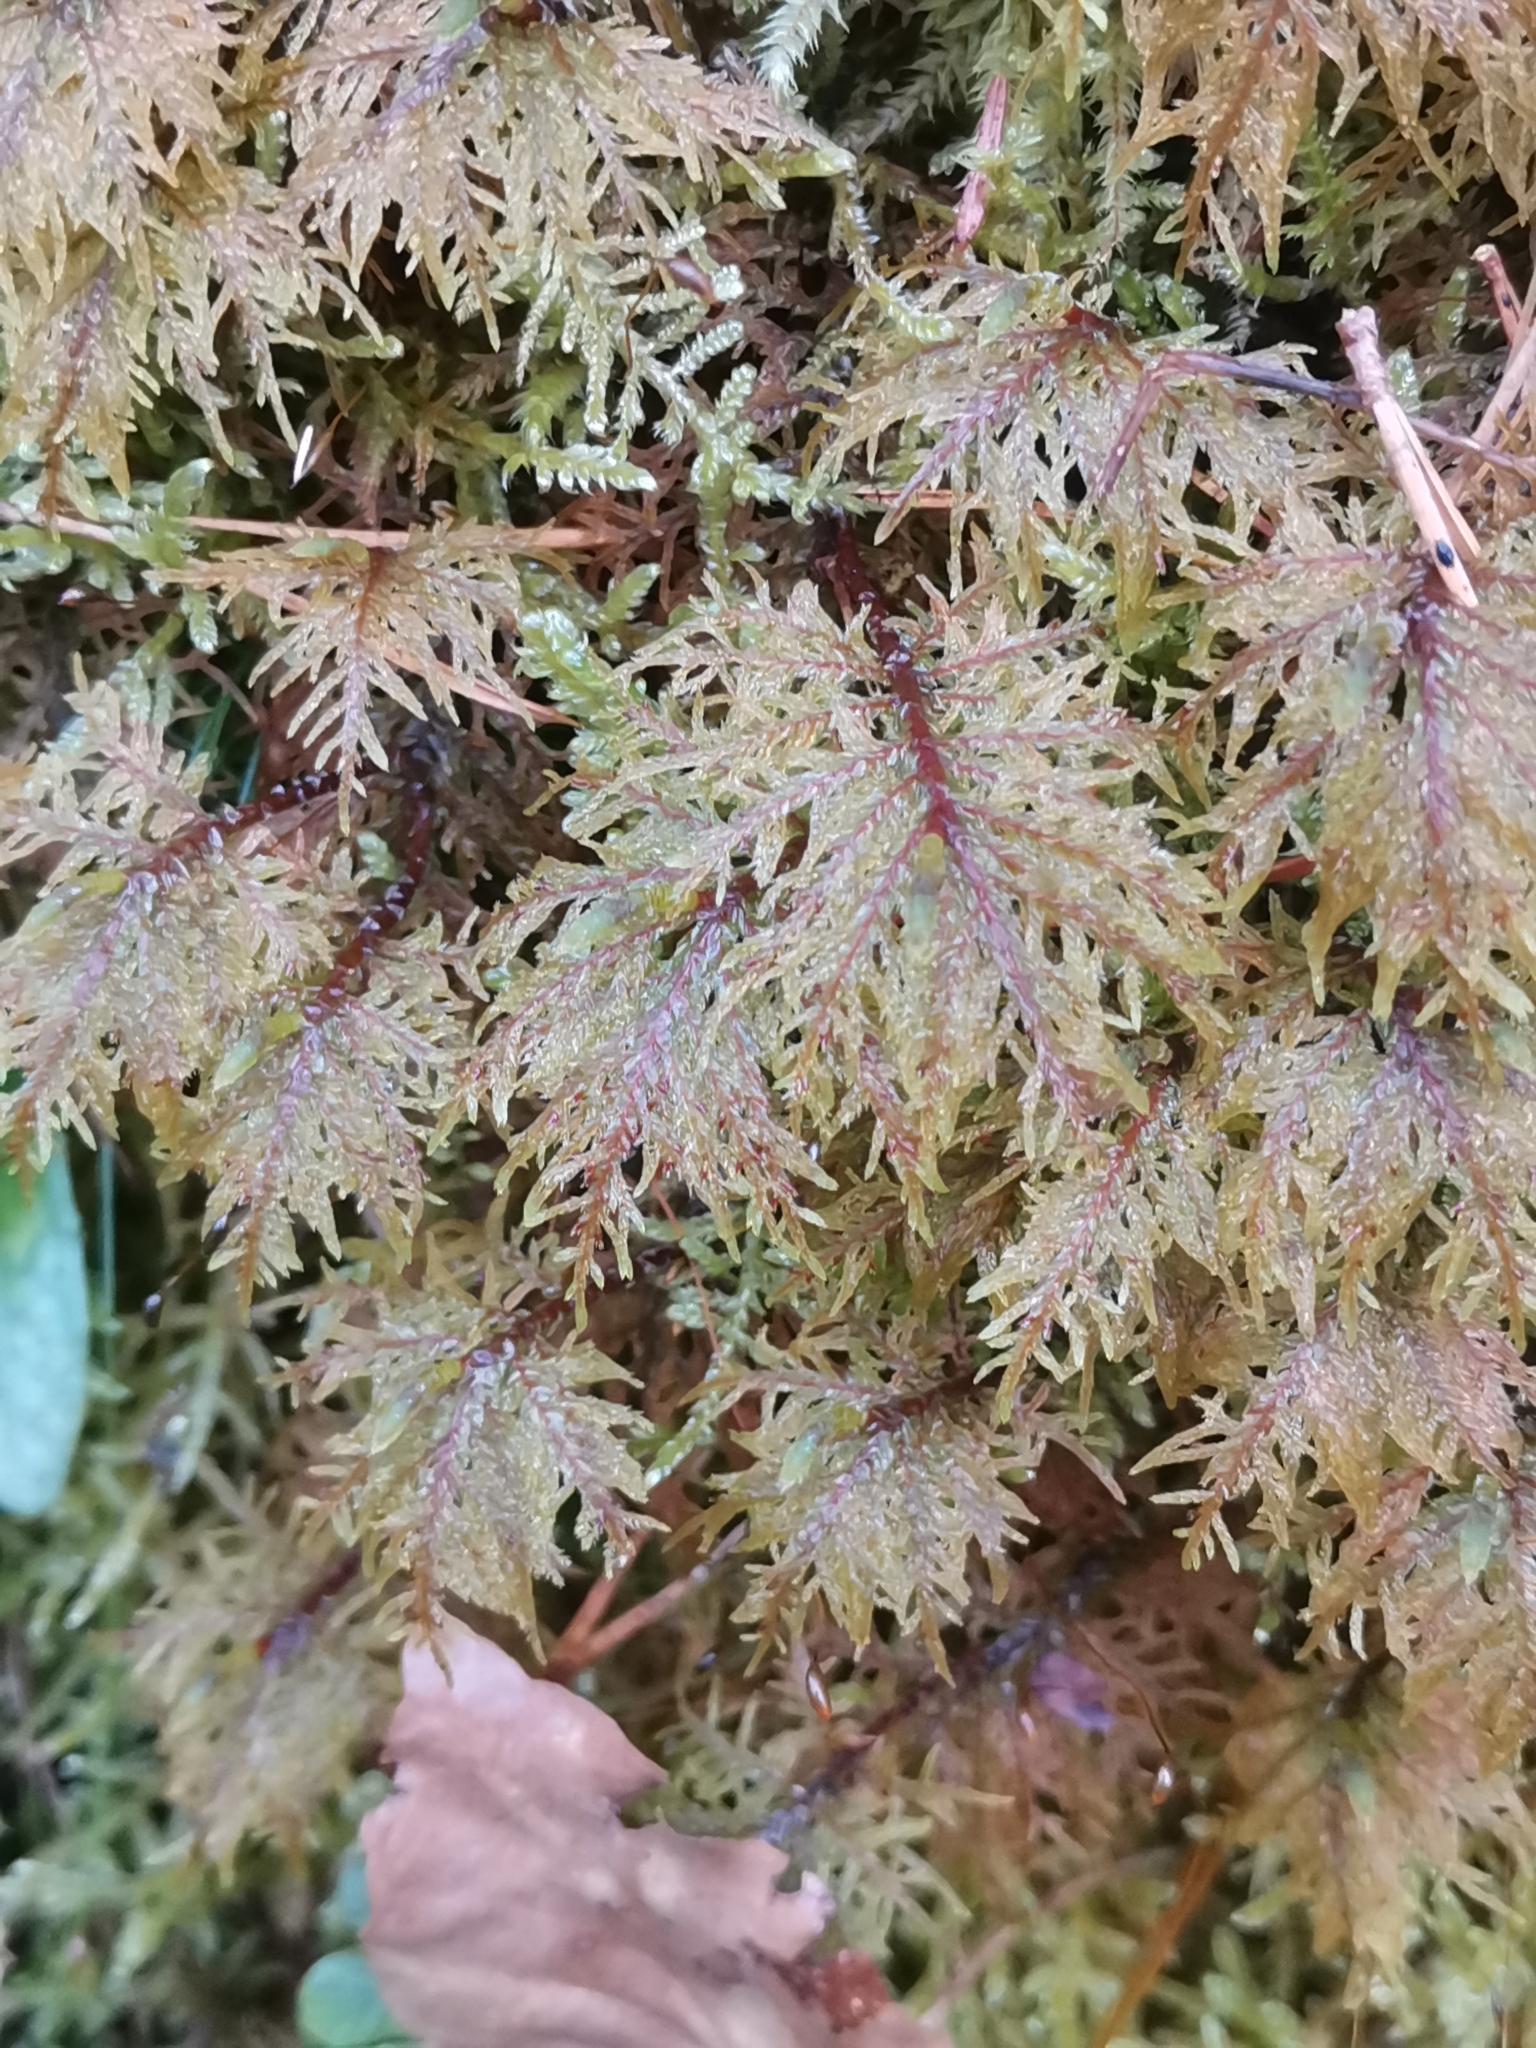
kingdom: Plantae
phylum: Bryophyta
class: Bryopsida
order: Hypnales
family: Hylocomiaceae
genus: Hylocomium
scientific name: Hylocomium splendens
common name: Stairstep moss
